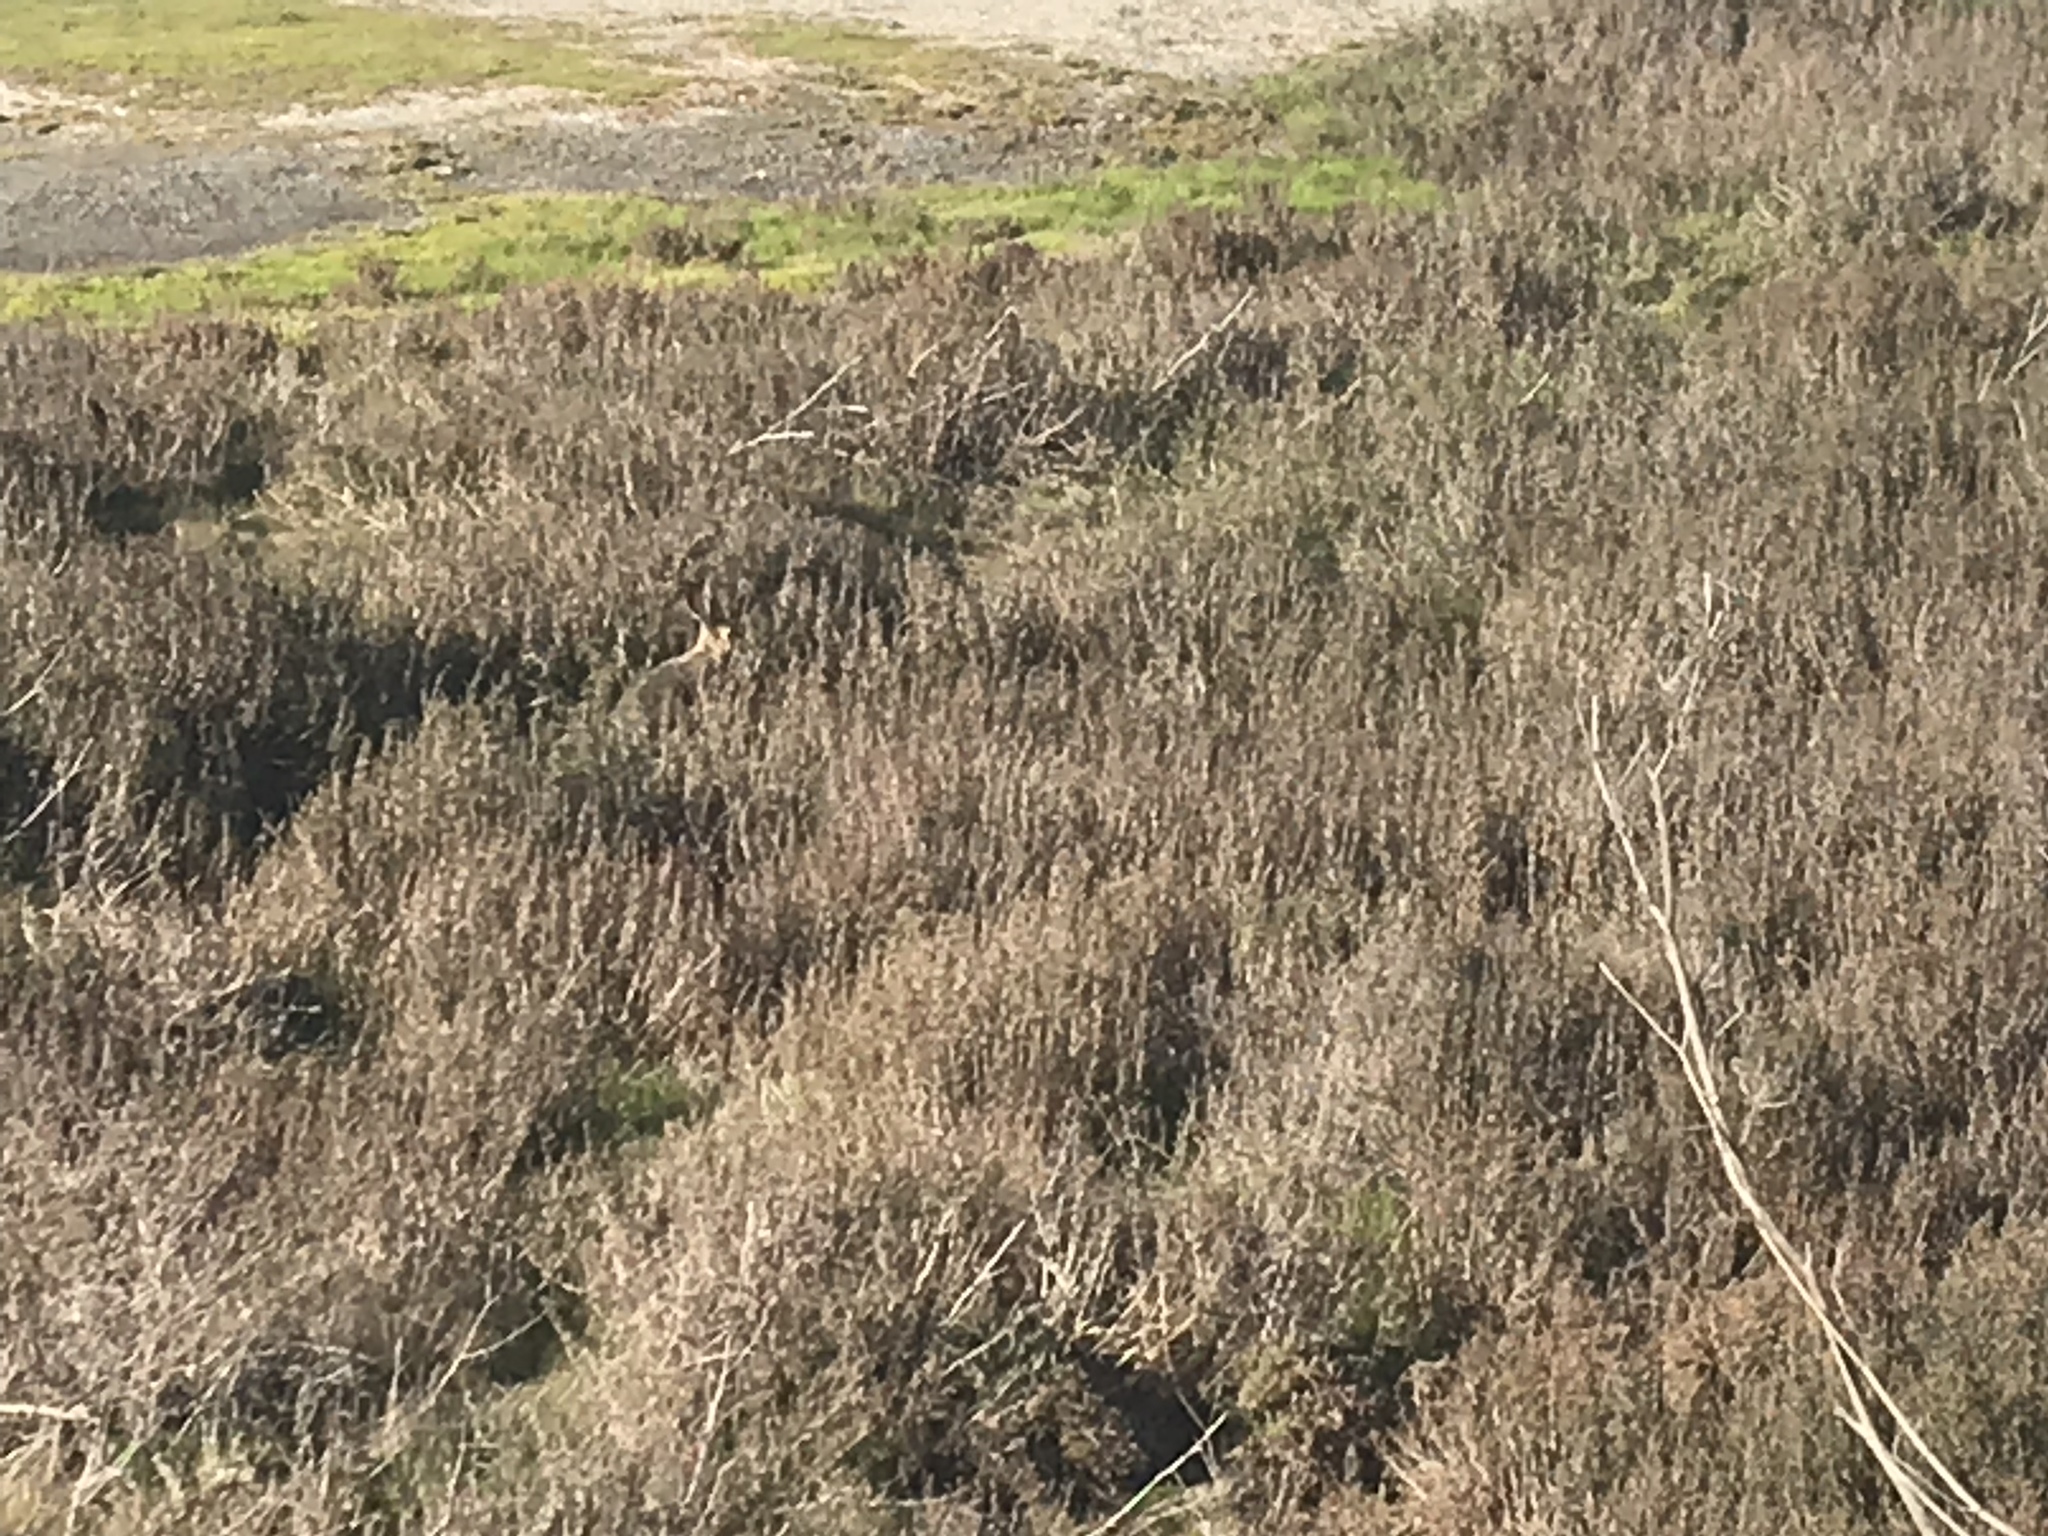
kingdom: Animalia
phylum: Chordata
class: Mammalia
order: Lagomorpha
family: Leporidae
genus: Lepus
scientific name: Lepus californicus
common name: Black-tailed jackrabbit
